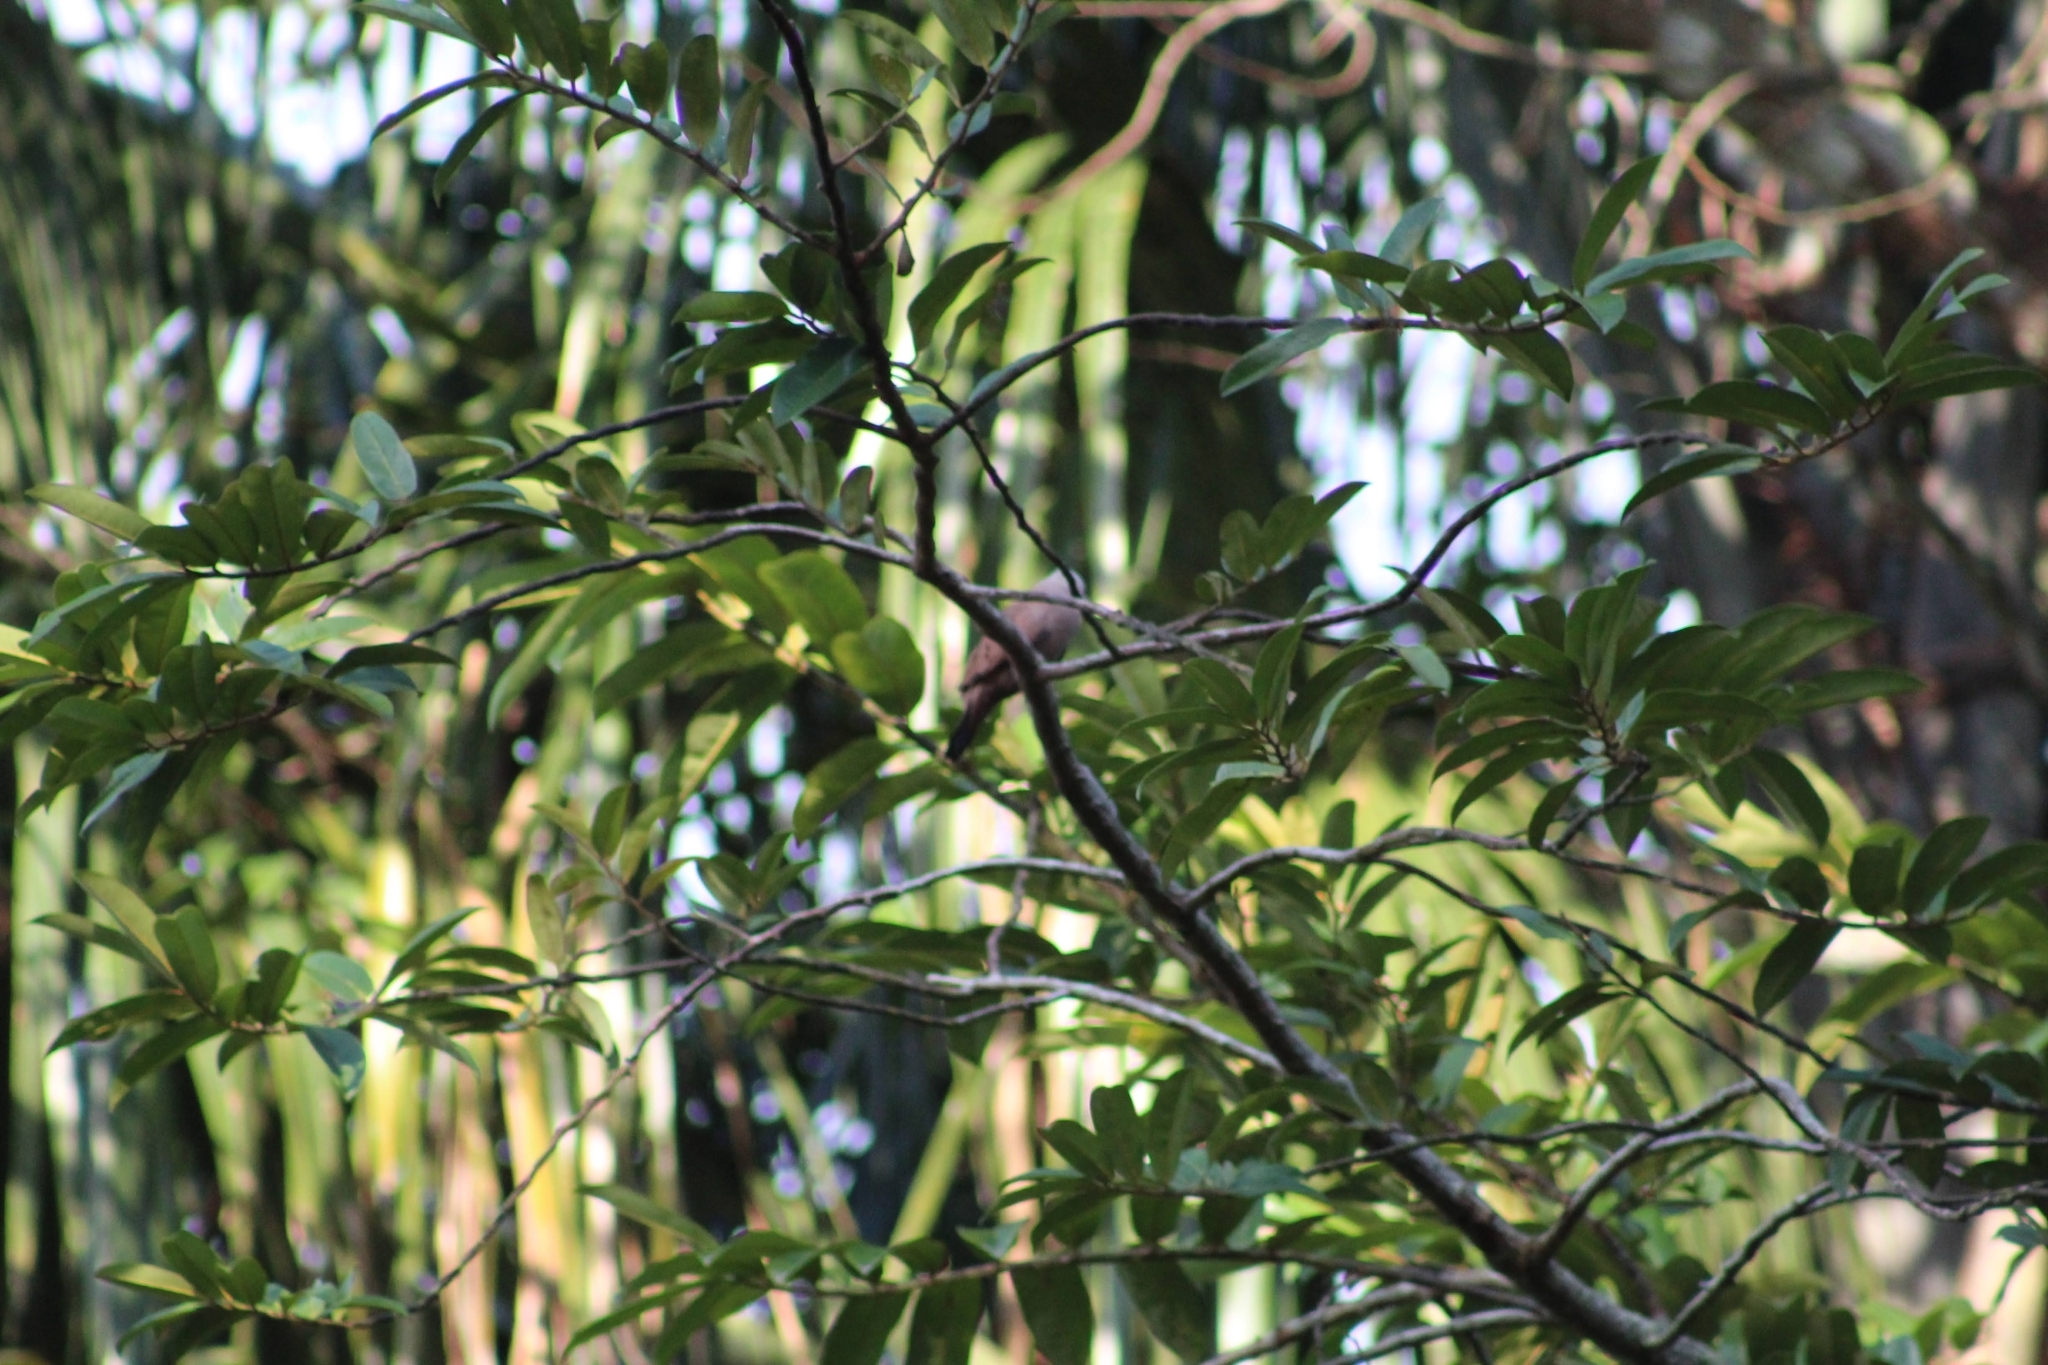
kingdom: Animalia
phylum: Chordata
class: Aves
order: Columbiformes
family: Columbidae
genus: Columbina
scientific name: Columbina talpacoti
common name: Ruddy ground dove
